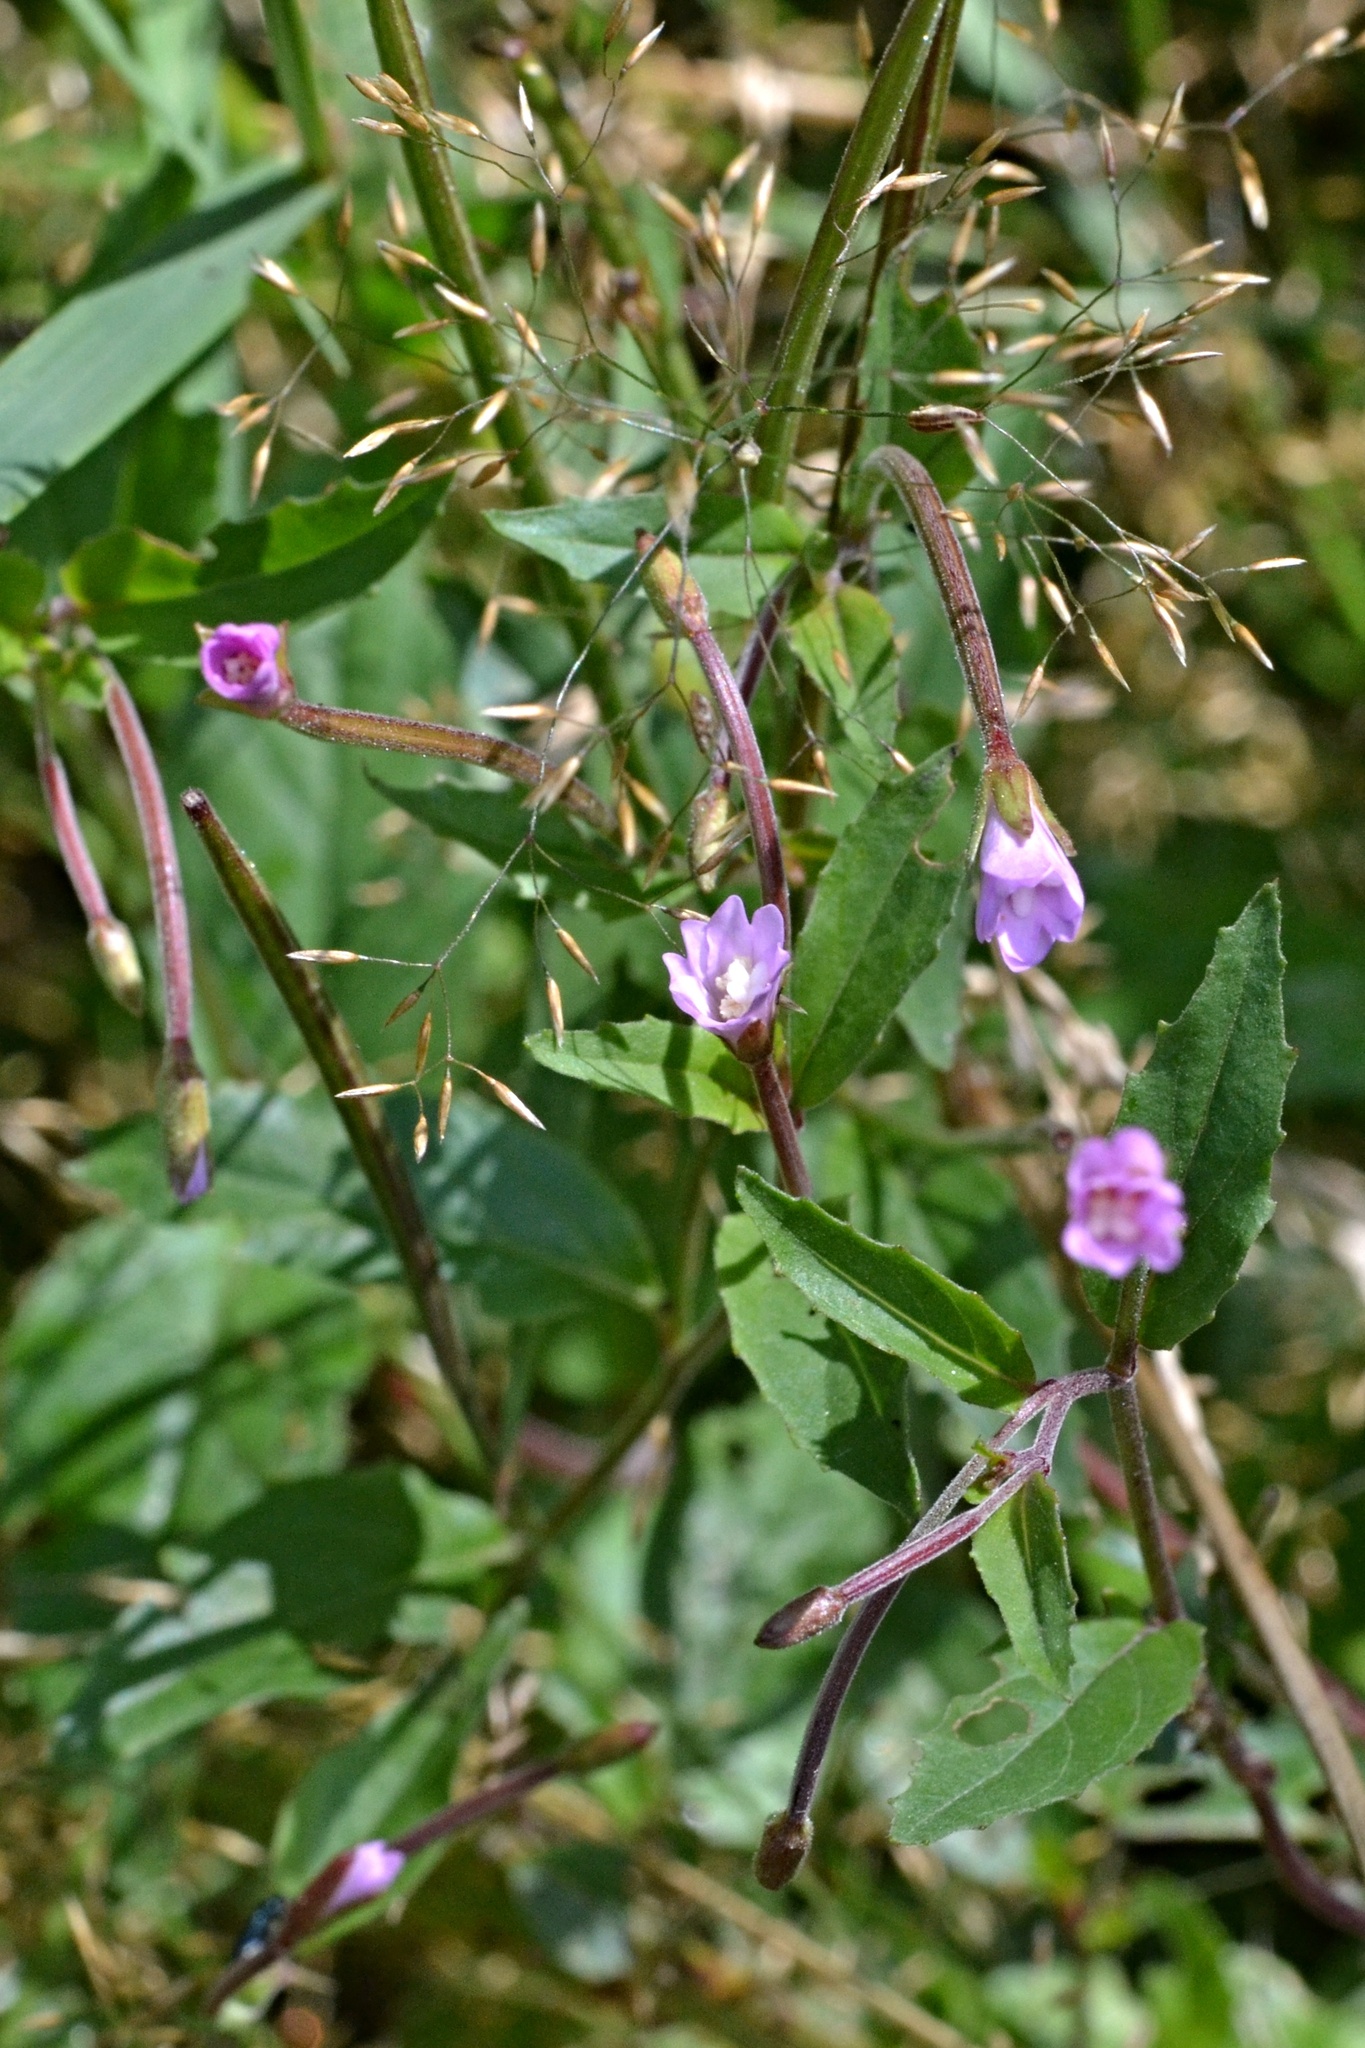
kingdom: Plantae
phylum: Tracheophyta
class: Magnoliopsida
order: Myrtales
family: Onagraceae
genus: Epilobium
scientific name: Epilobium montanum
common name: Broad-leaved willowherb
